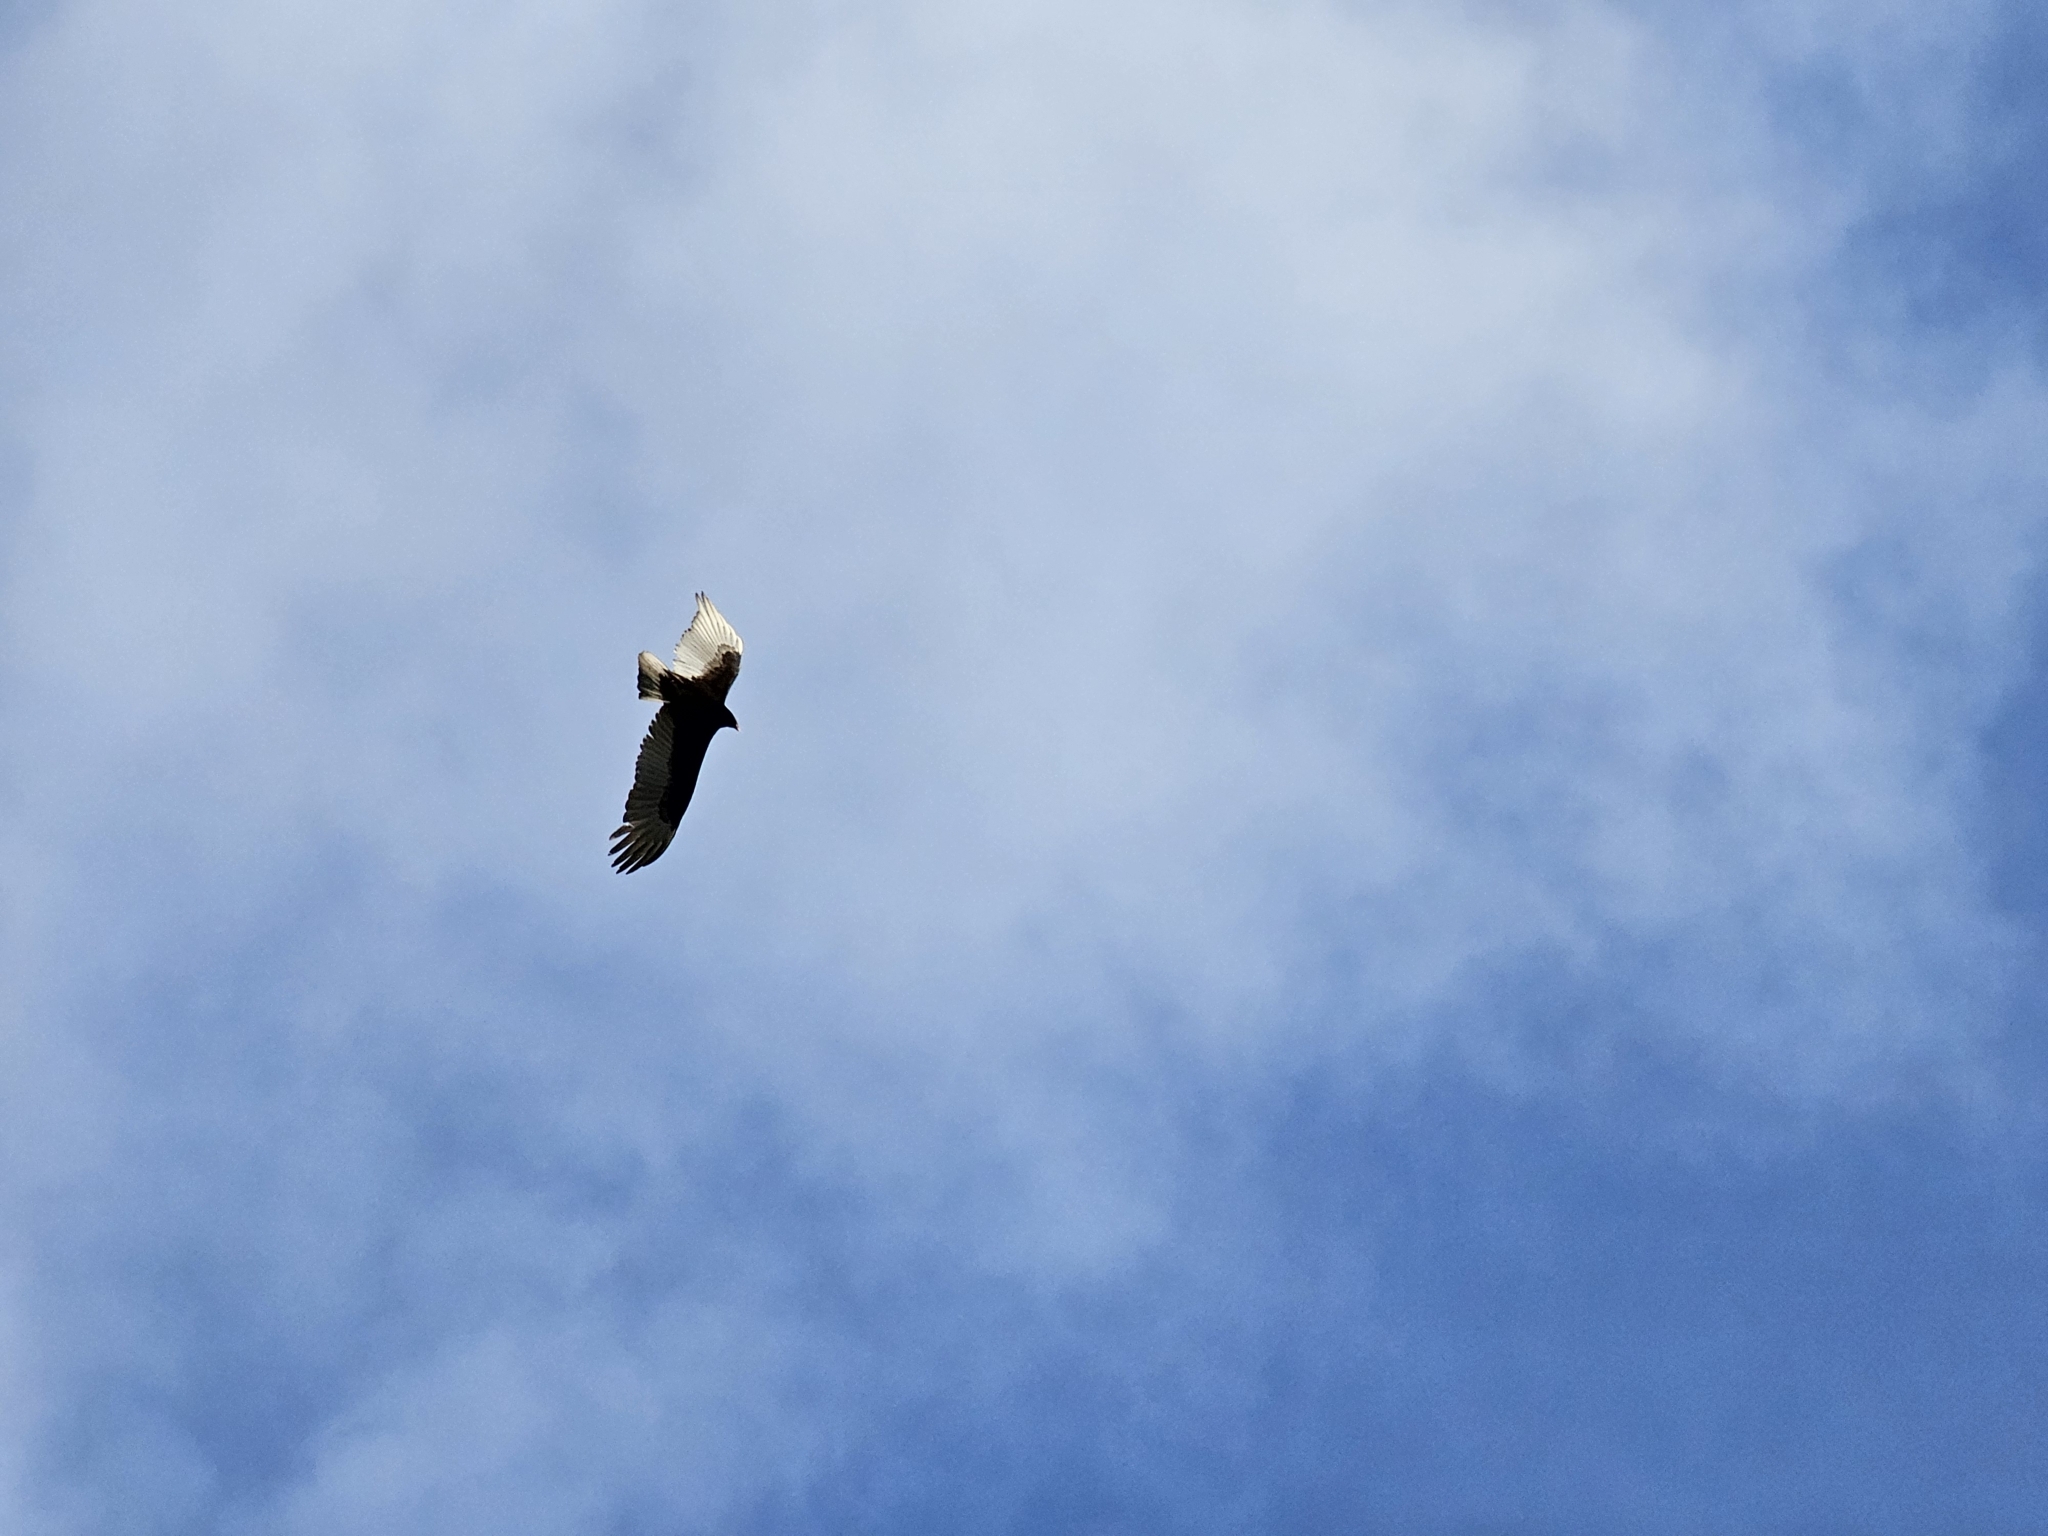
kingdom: Animalia
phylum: Chordata
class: Aves
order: Accipitriformes
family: Cathartidae
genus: Cathartes
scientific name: Cathartes aura
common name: Turkey vulture
